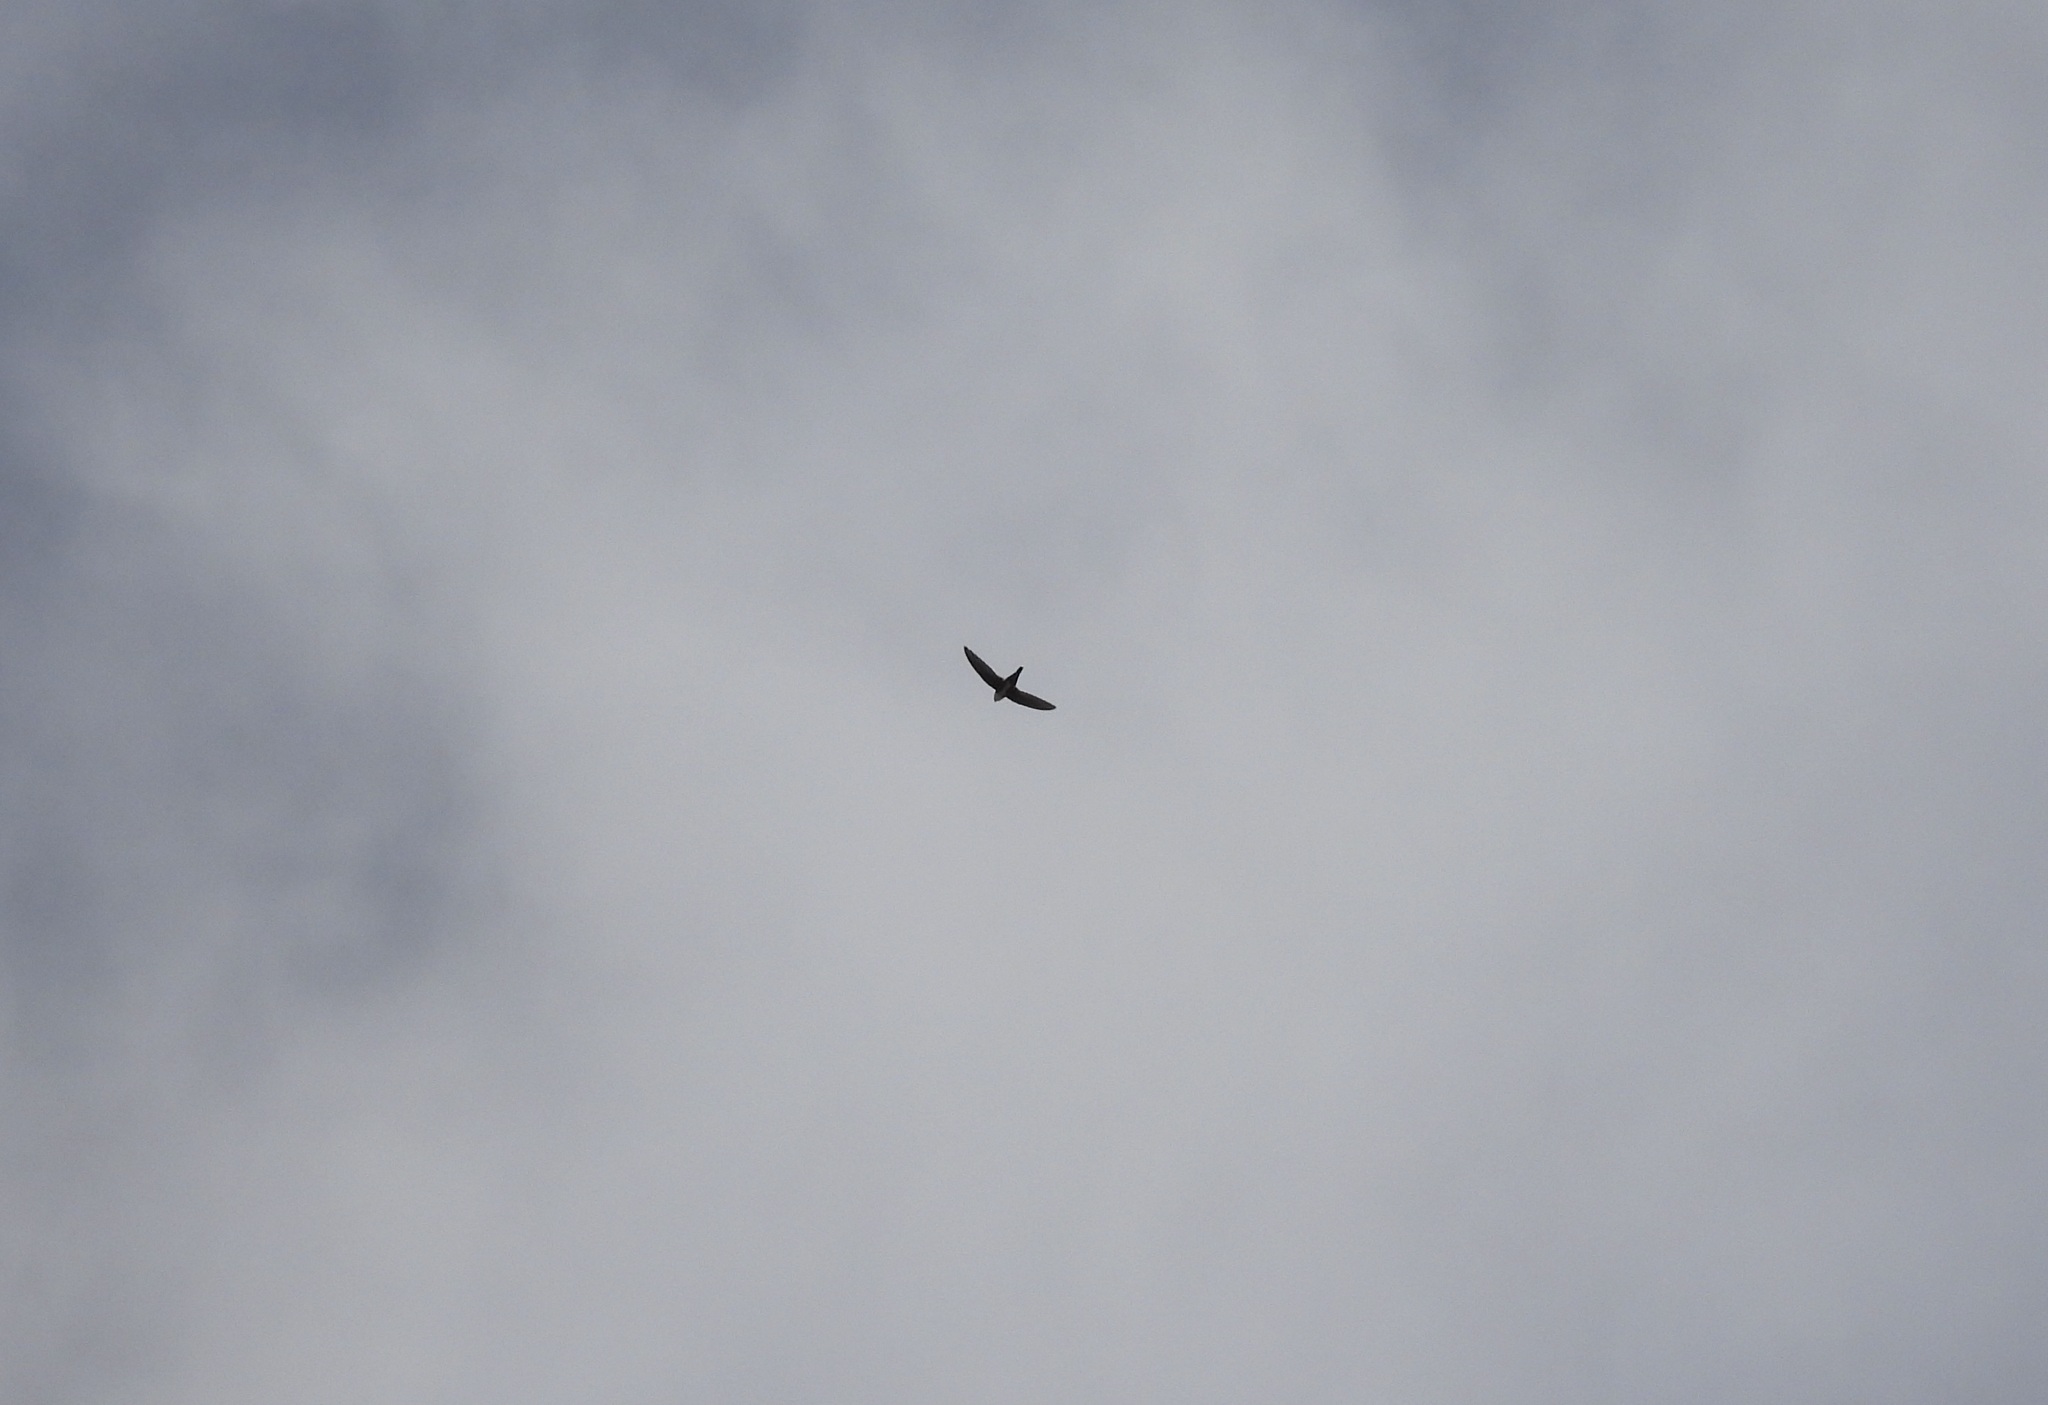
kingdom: Animalia
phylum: Chordata
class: Aves
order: Apodiformes
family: Apodidae
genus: Aeronautes
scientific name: Aeronautes saxatalis
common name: White-throated swift
